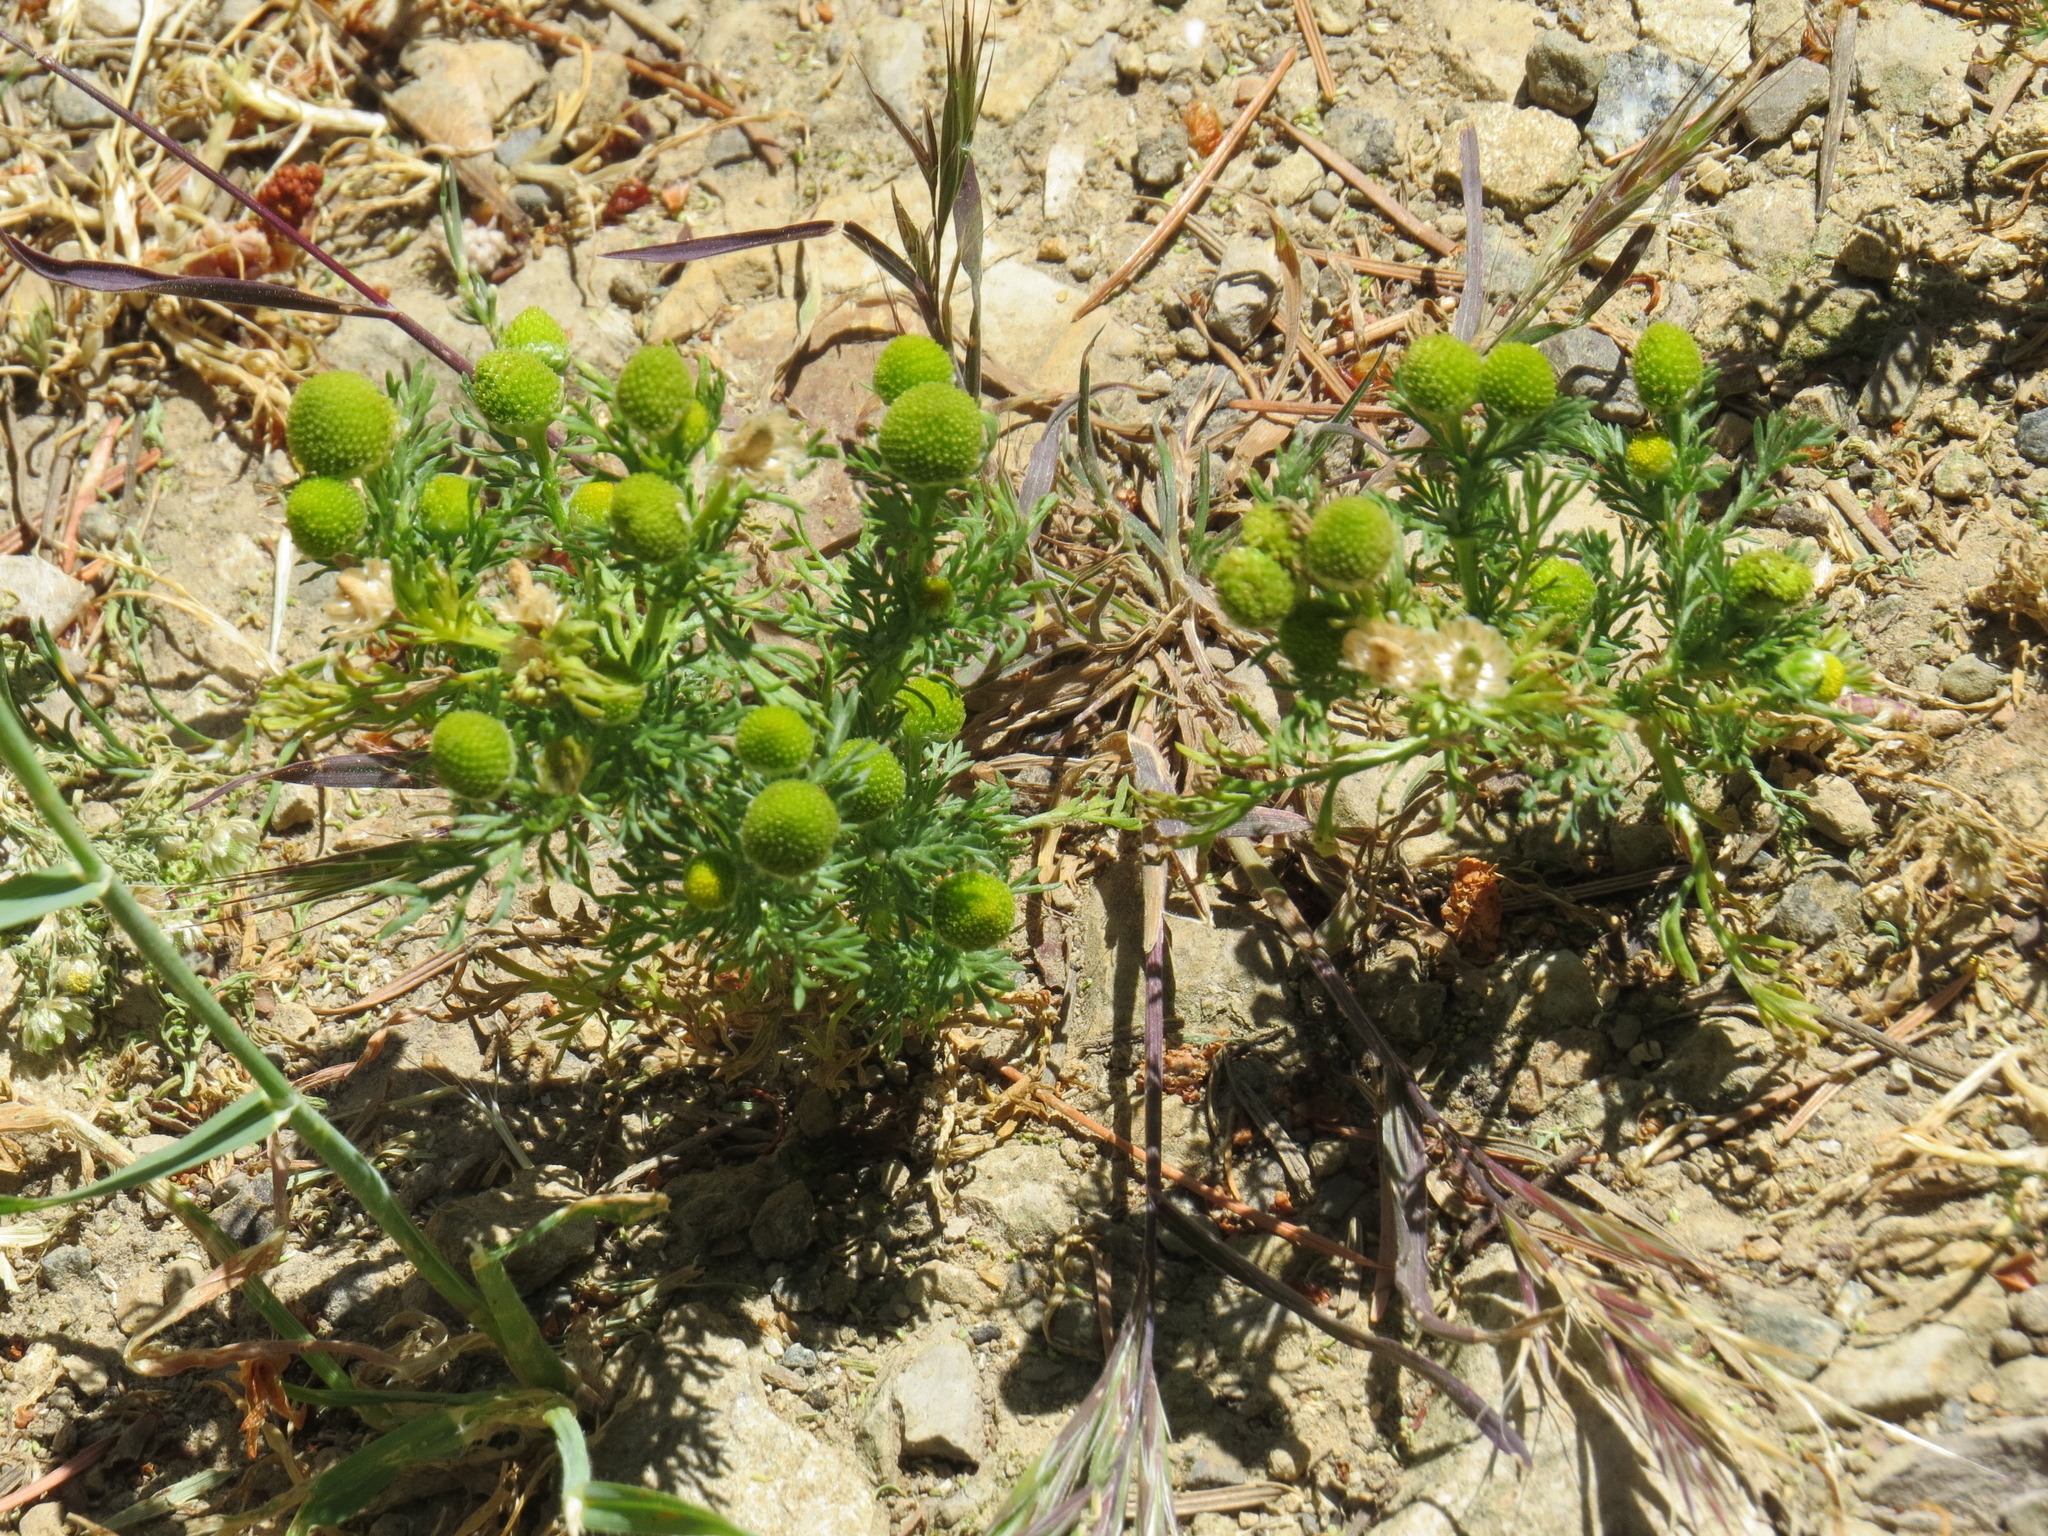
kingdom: Plantae
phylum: Tracheophyta
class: Magnoliopsida
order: Asterales
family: Asteraceae
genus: Matricaria
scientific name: Matricaria discoidea
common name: Disc mayweed
